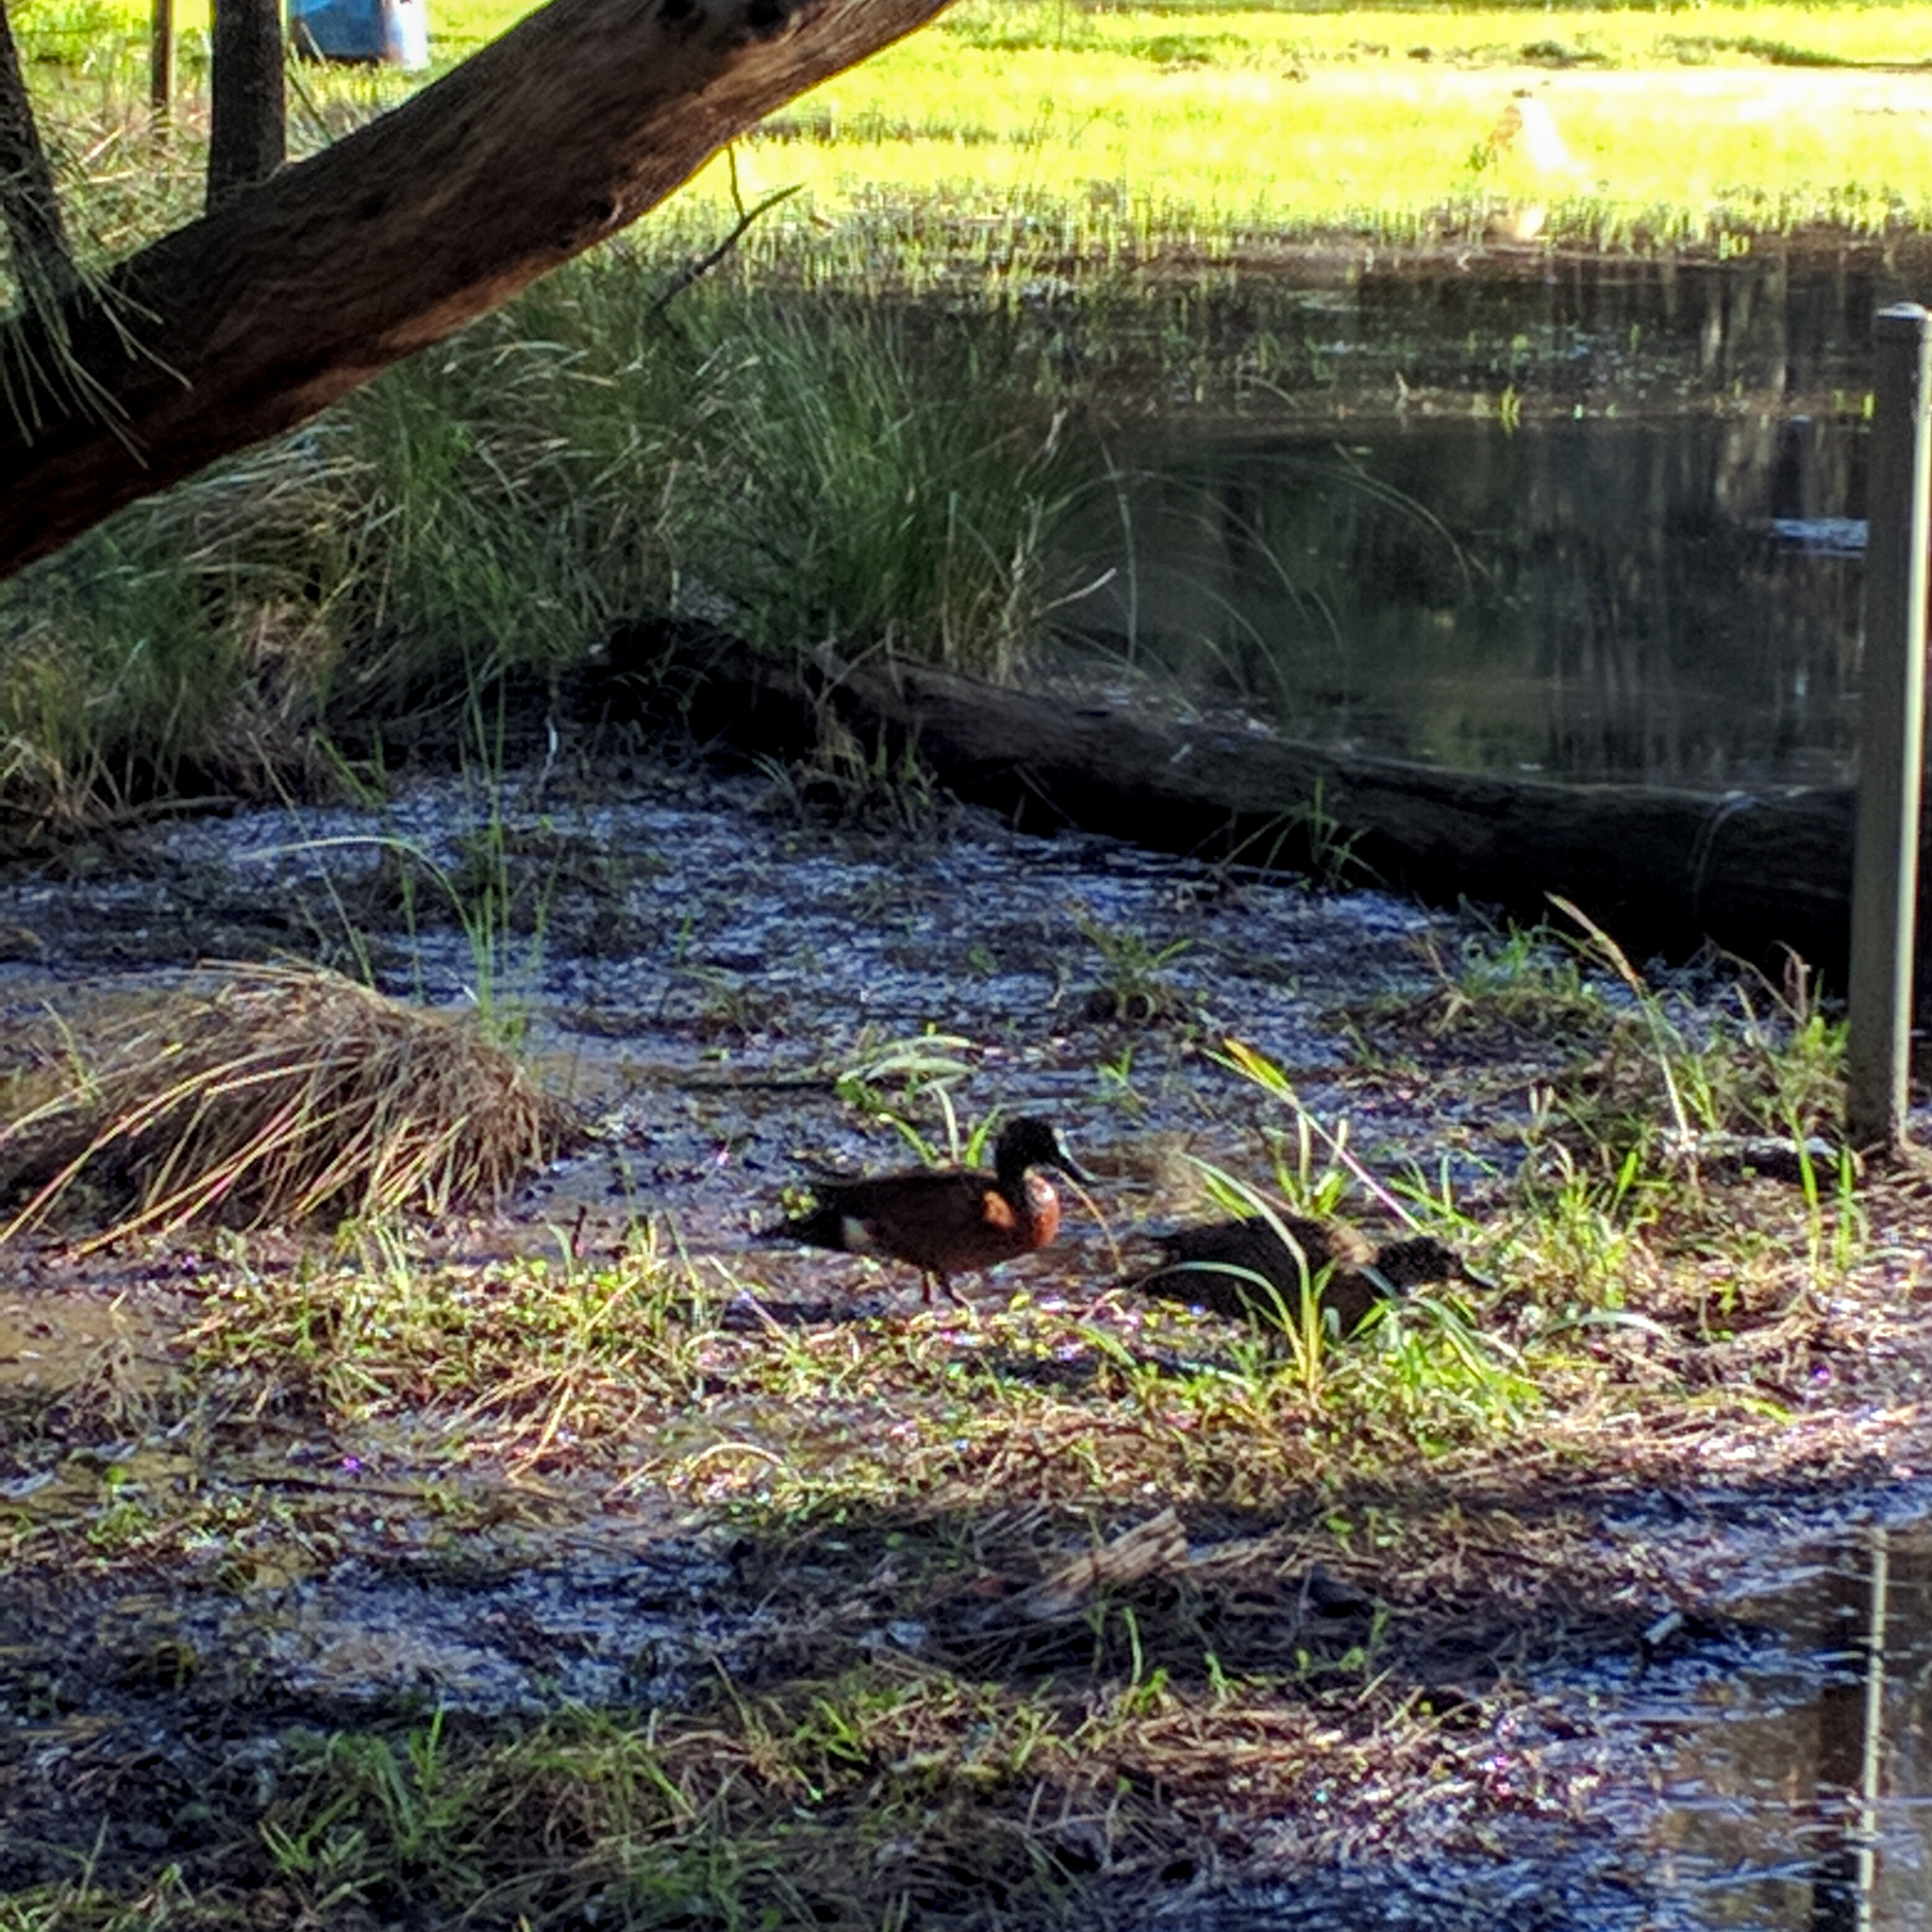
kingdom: Animalia
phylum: Chordata
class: Aves
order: Anseriformes
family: Anatidae
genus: Anas
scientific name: Anas castanea
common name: Chestnut teal
